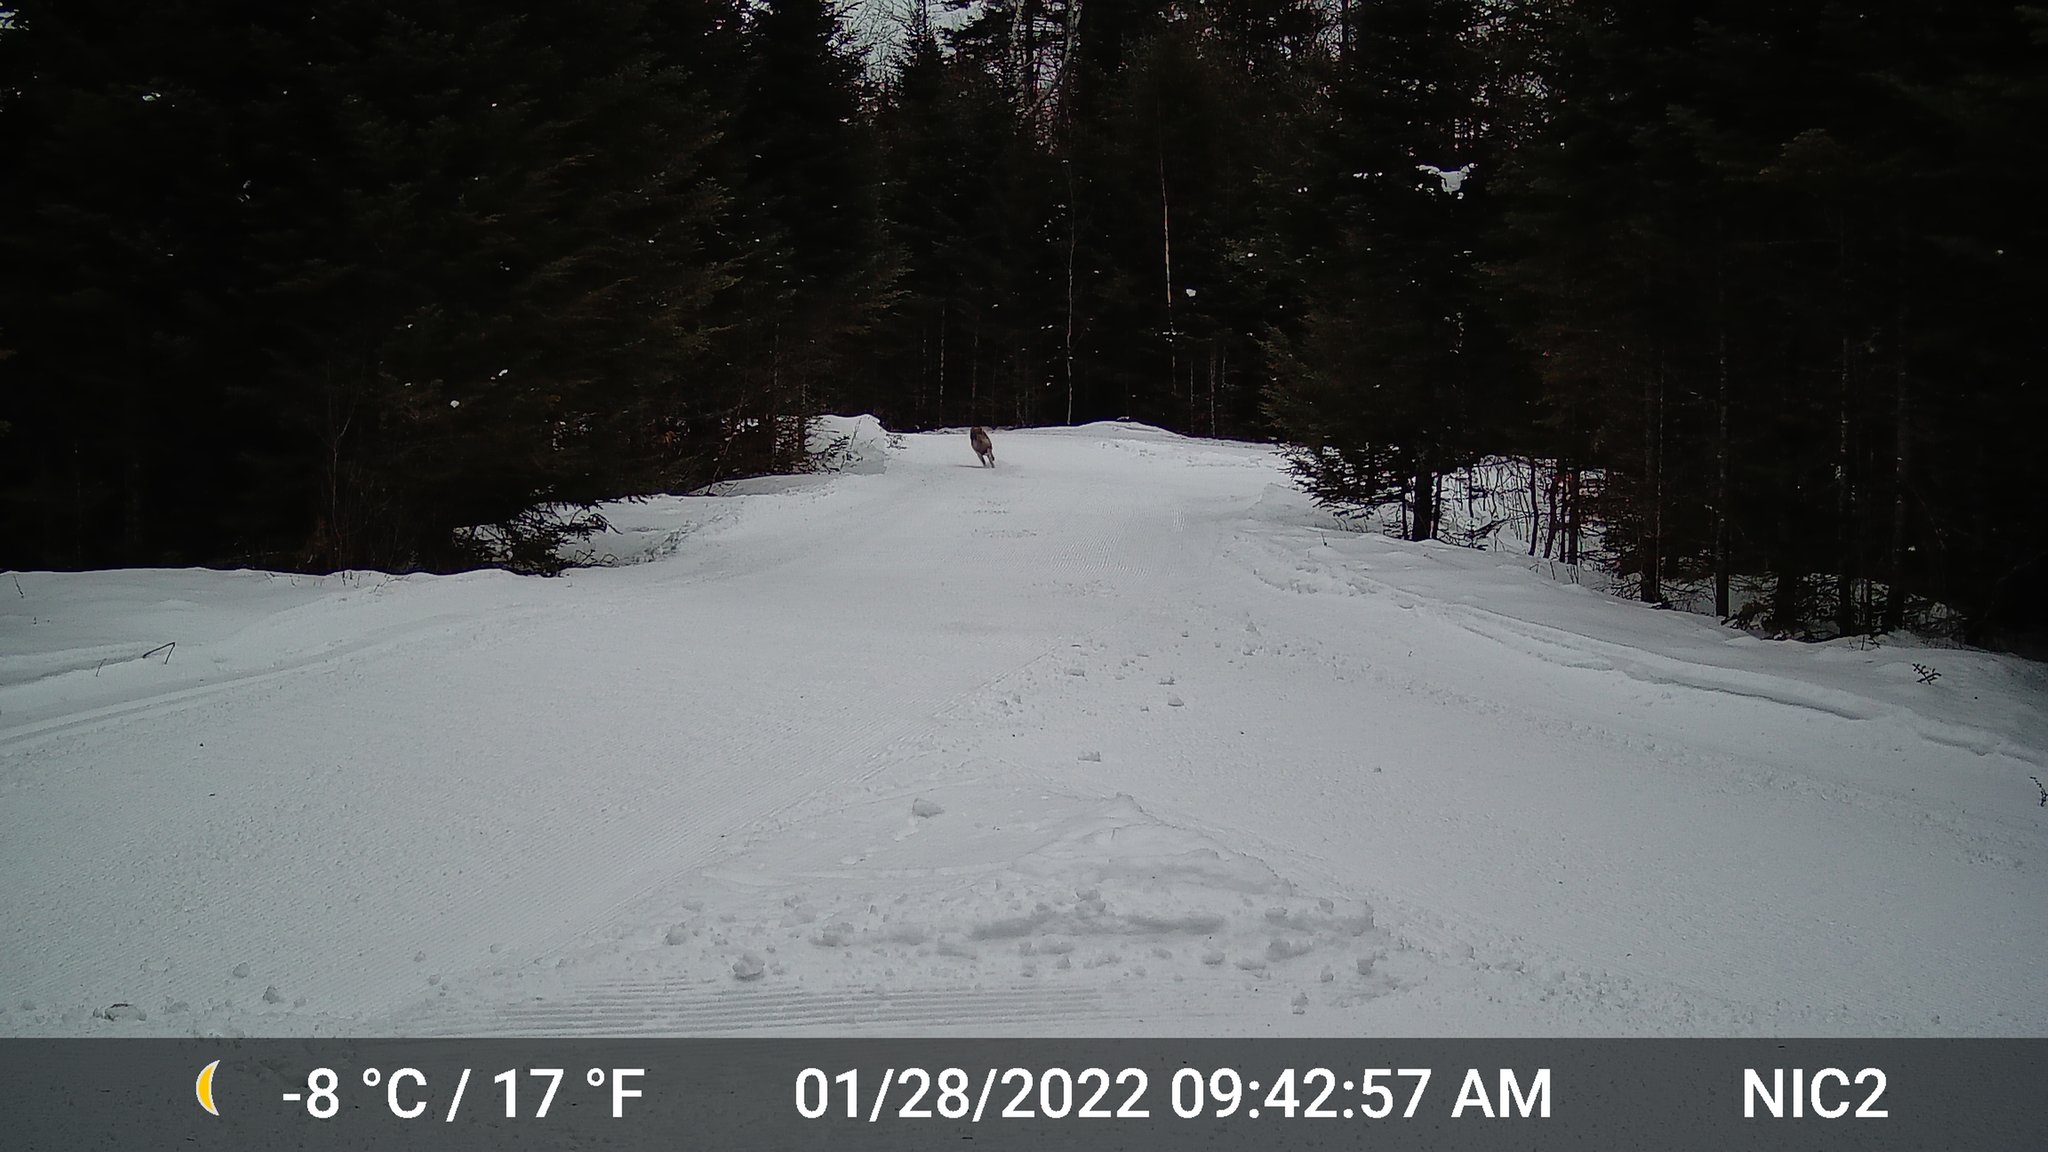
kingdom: Animalia
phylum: Chordata
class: Mammalia
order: Carnivora
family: Canidae
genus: Canis
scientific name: Canis latrans
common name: Coyote
